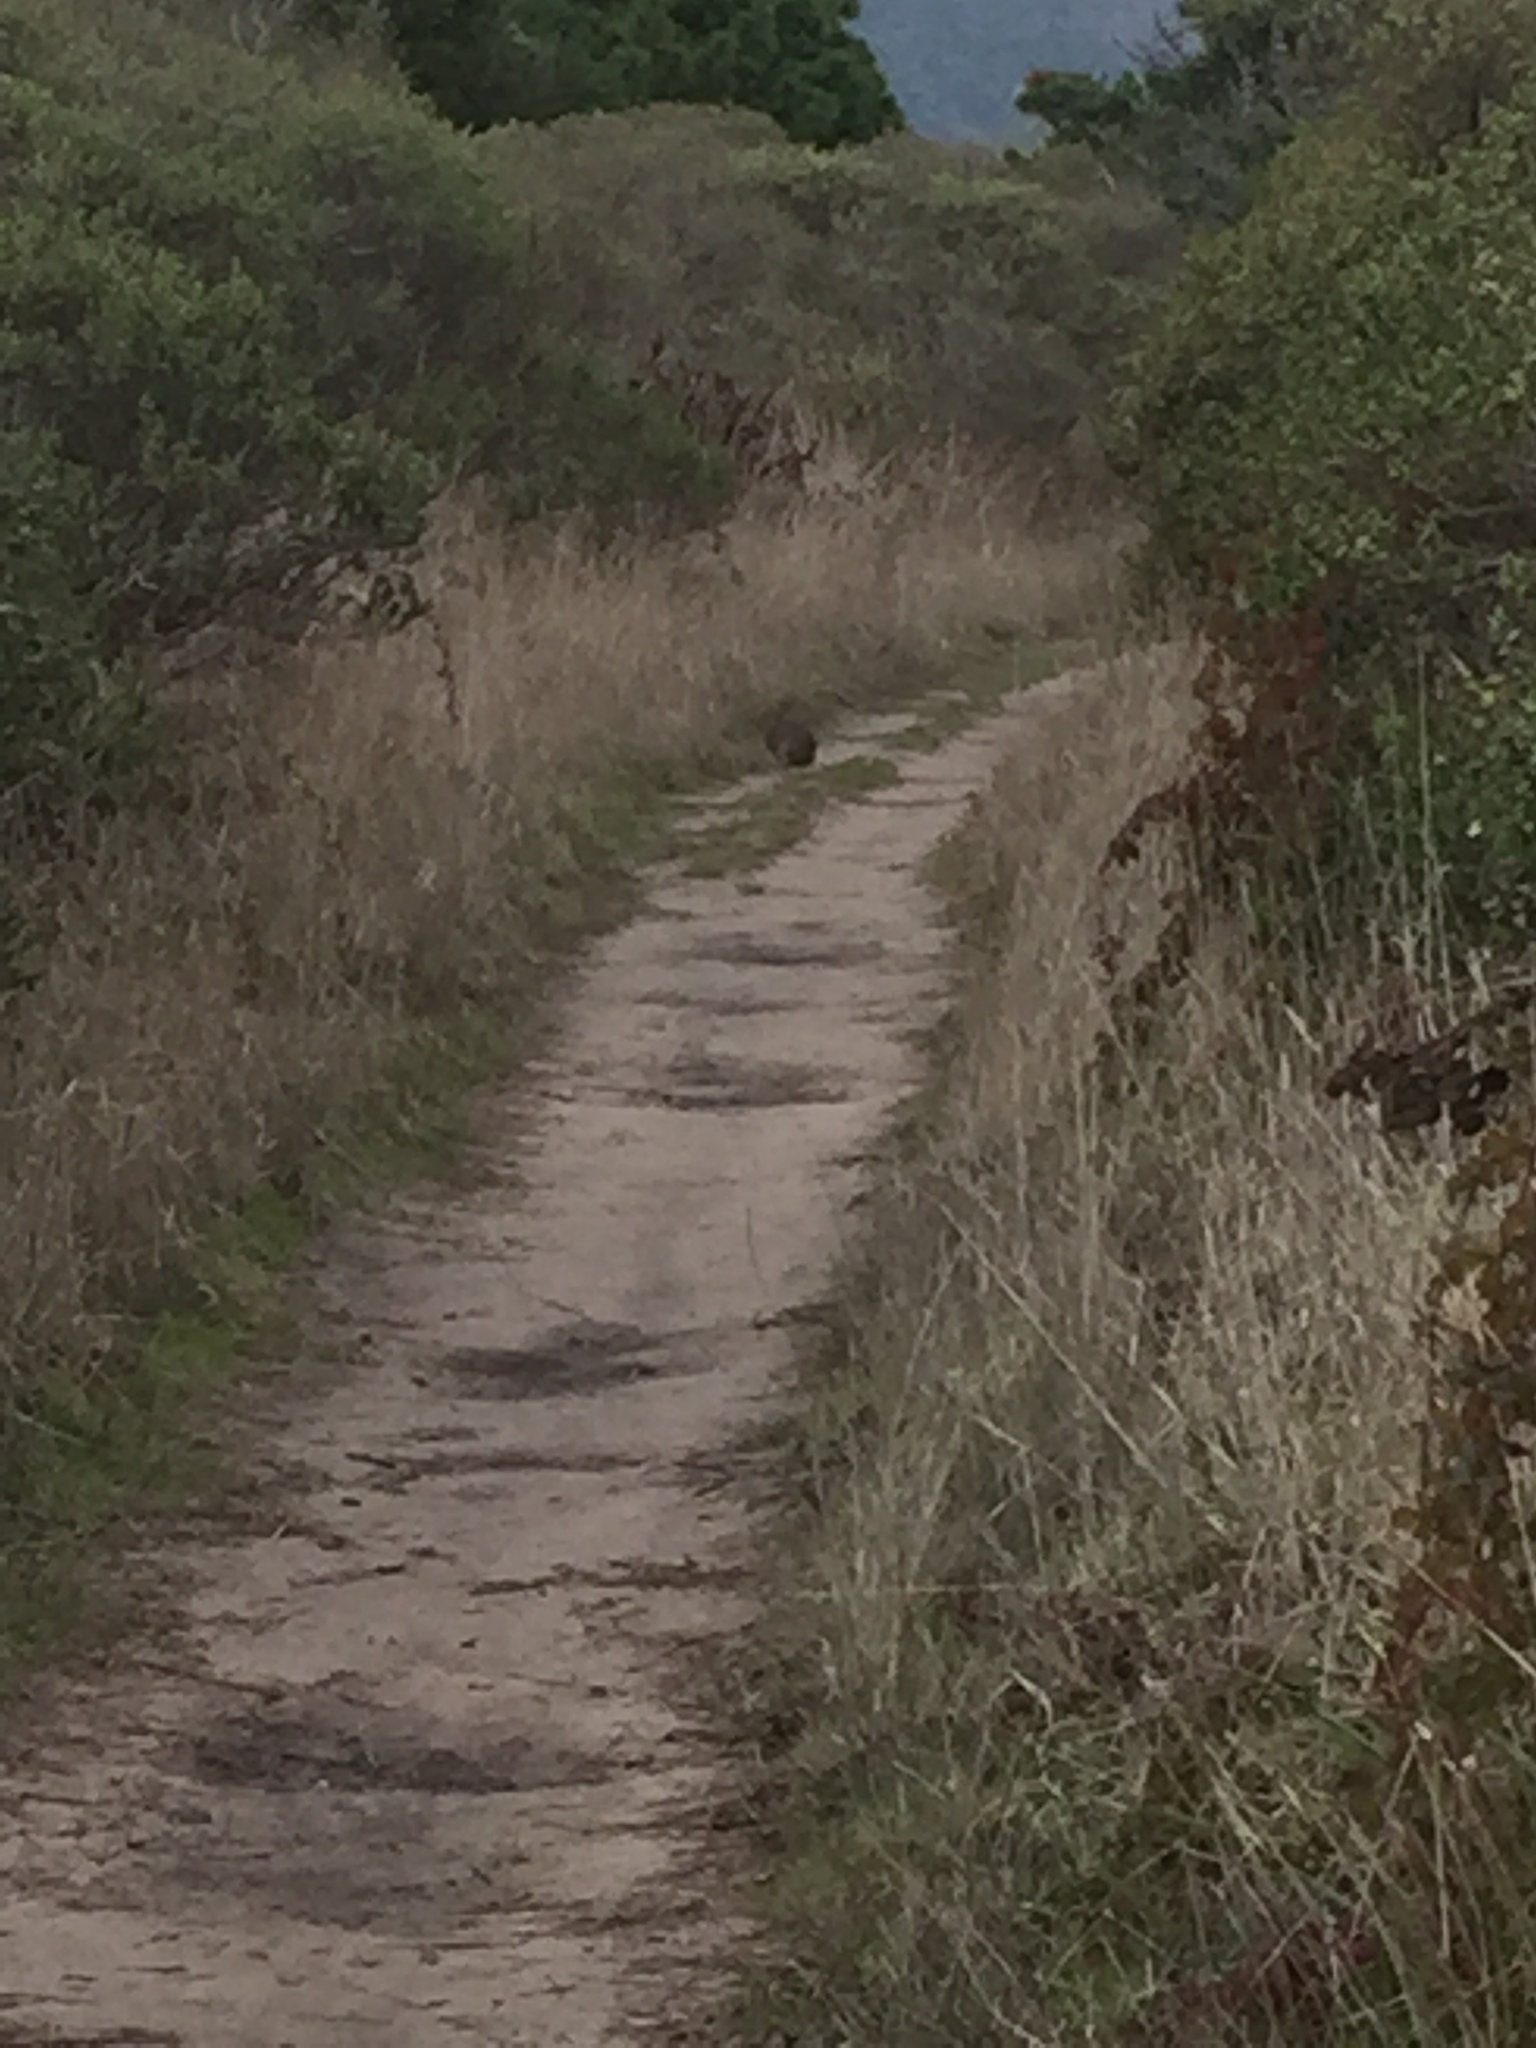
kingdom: Animalia
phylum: Chordata
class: Mammalia
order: Lagomorpha
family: Leporidae
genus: Sylvilagus
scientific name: Sylvilagus bachmani
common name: Brush rabbit
